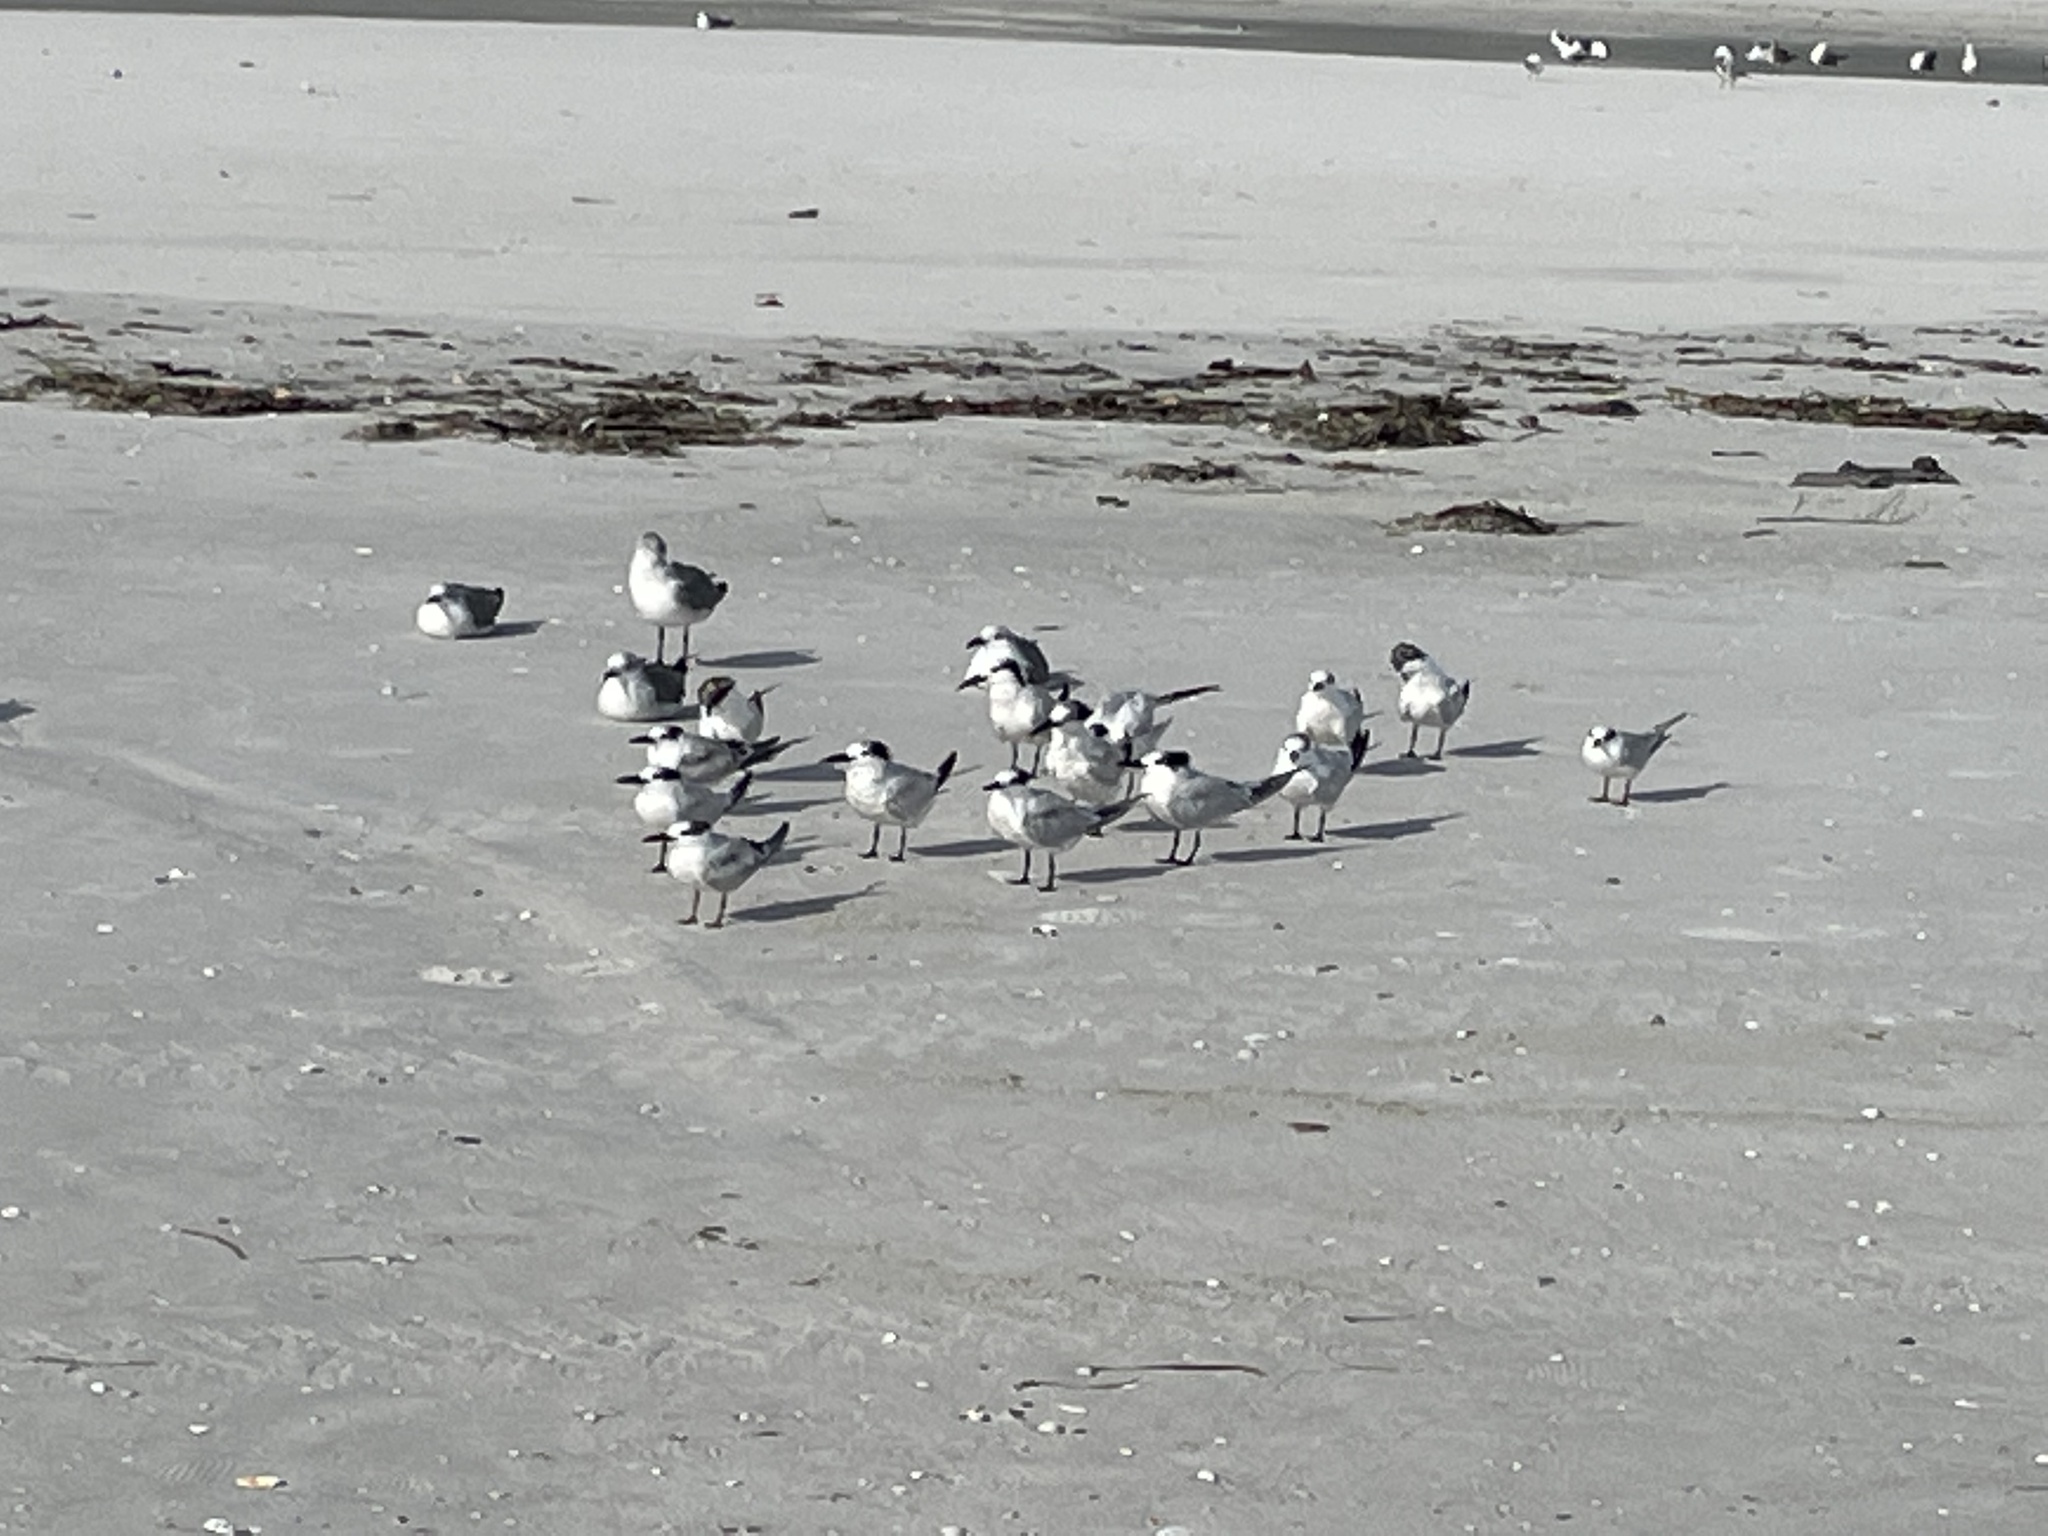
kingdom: Animalia
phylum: Chordata
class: Aves
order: Charadriiformes
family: Laridae
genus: Thalasseus
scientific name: Thalasseus acuflavidus
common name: Cabot's tern
